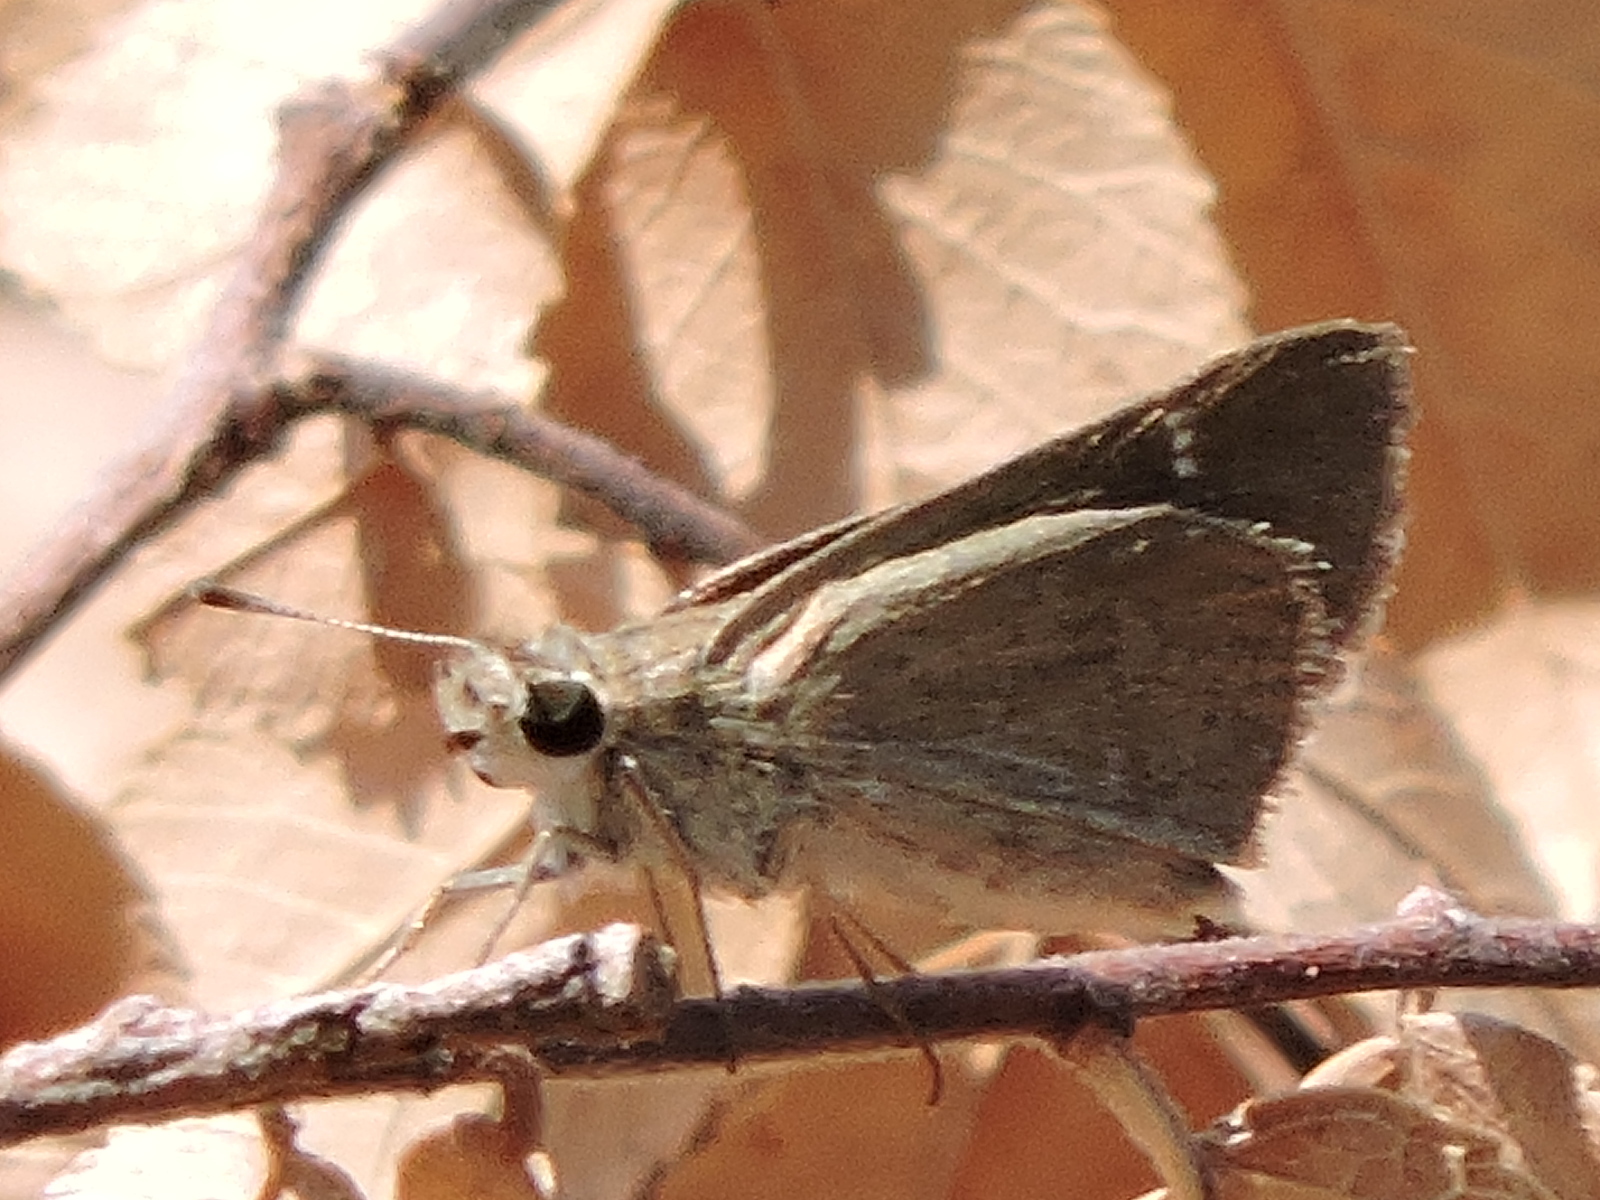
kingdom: Animalia
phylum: Arthropoda
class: Insecta
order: Lepidoptera
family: Hesperiidae
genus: Lerodea
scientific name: Lerodea eufala
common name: Eufala skipper
